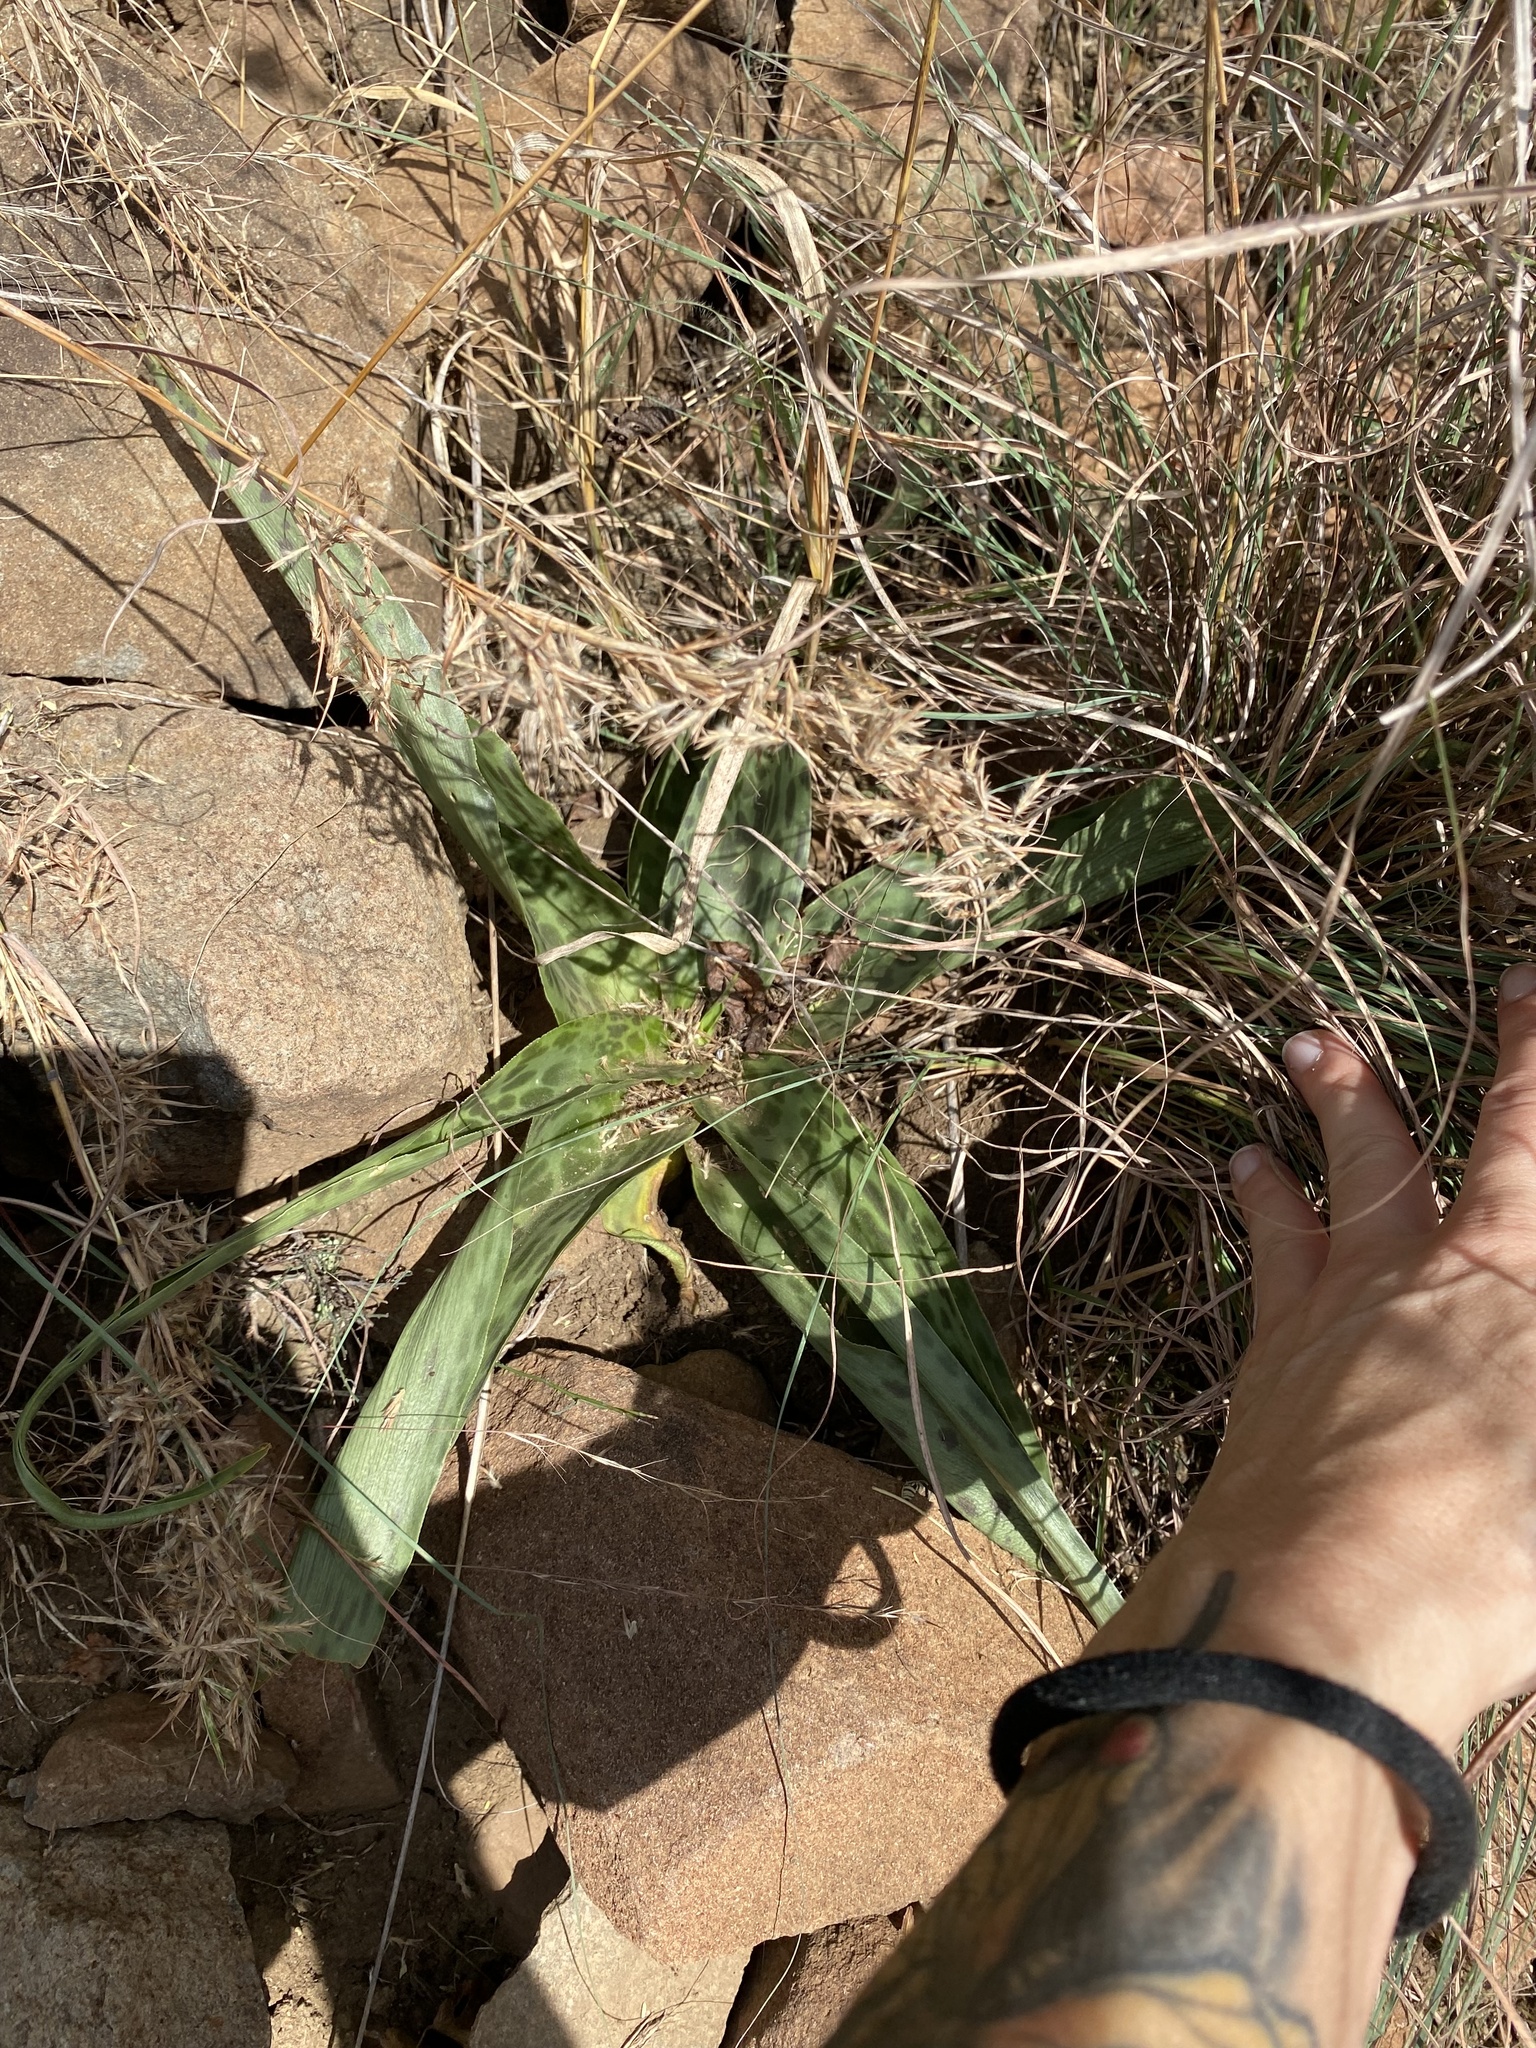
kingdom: Plantae
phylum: Tracheophyta
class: Liliopsida
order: Asparagales
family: Asparagaceae
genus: Ledebouria
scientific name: Ledebouria luteola
